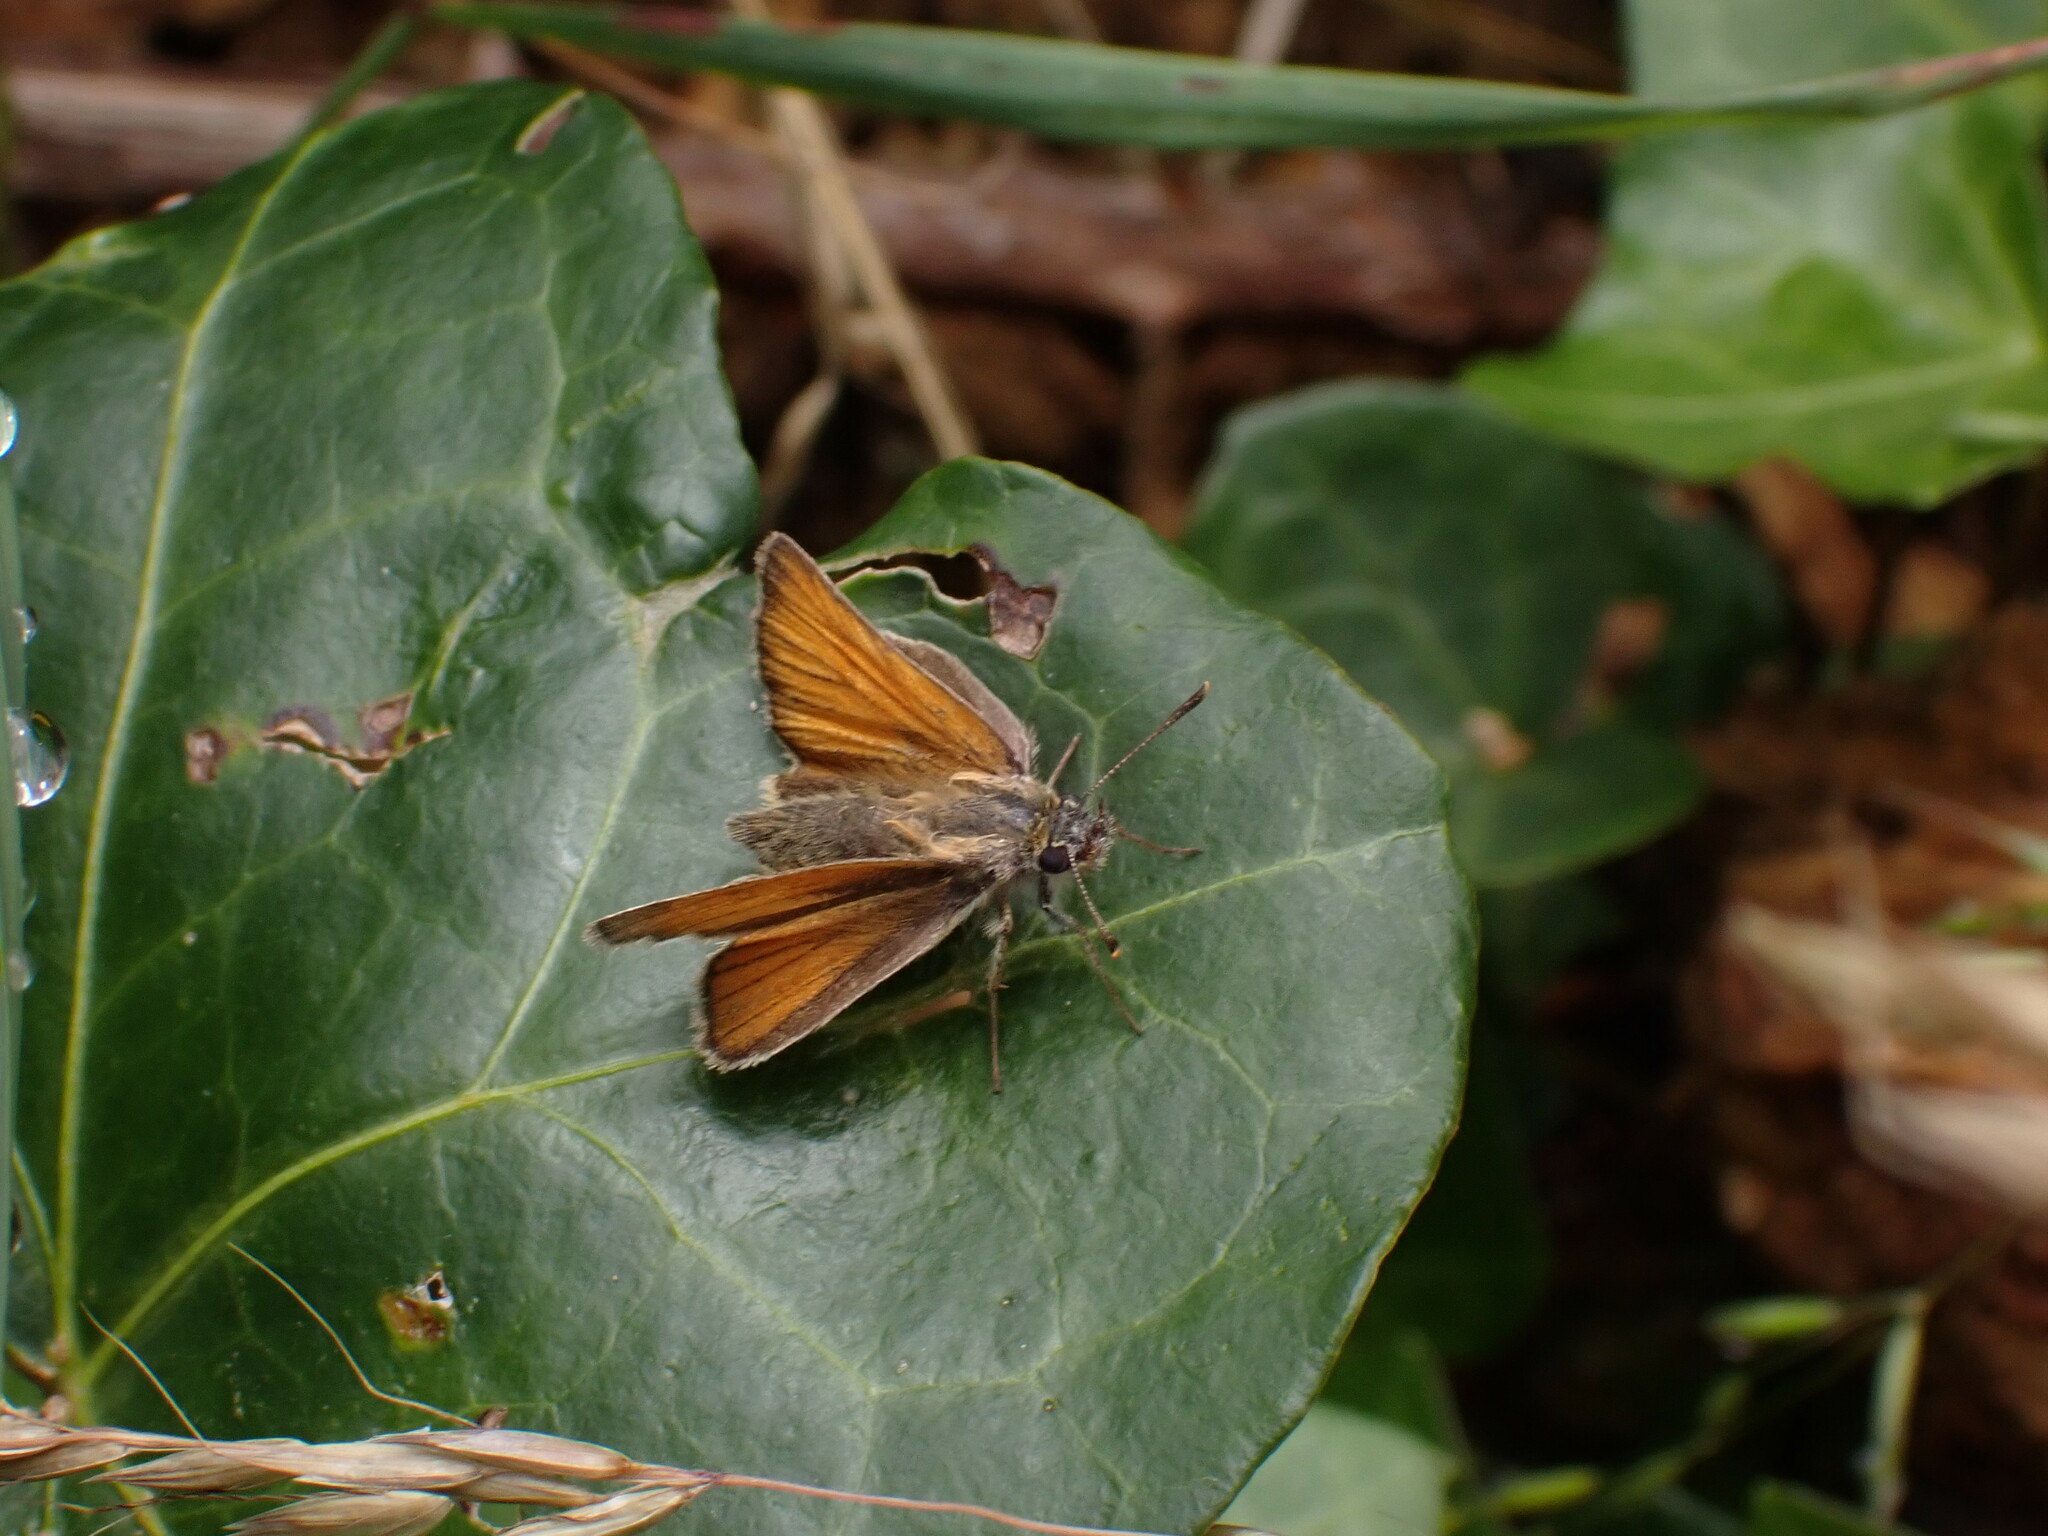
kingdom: Animalia
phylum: Arthropoda
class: Insecta
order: Lepidoptera
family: Hesperiidae
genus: Thymelicus
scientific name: Thymelicus sylvestris
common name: Small skipper
